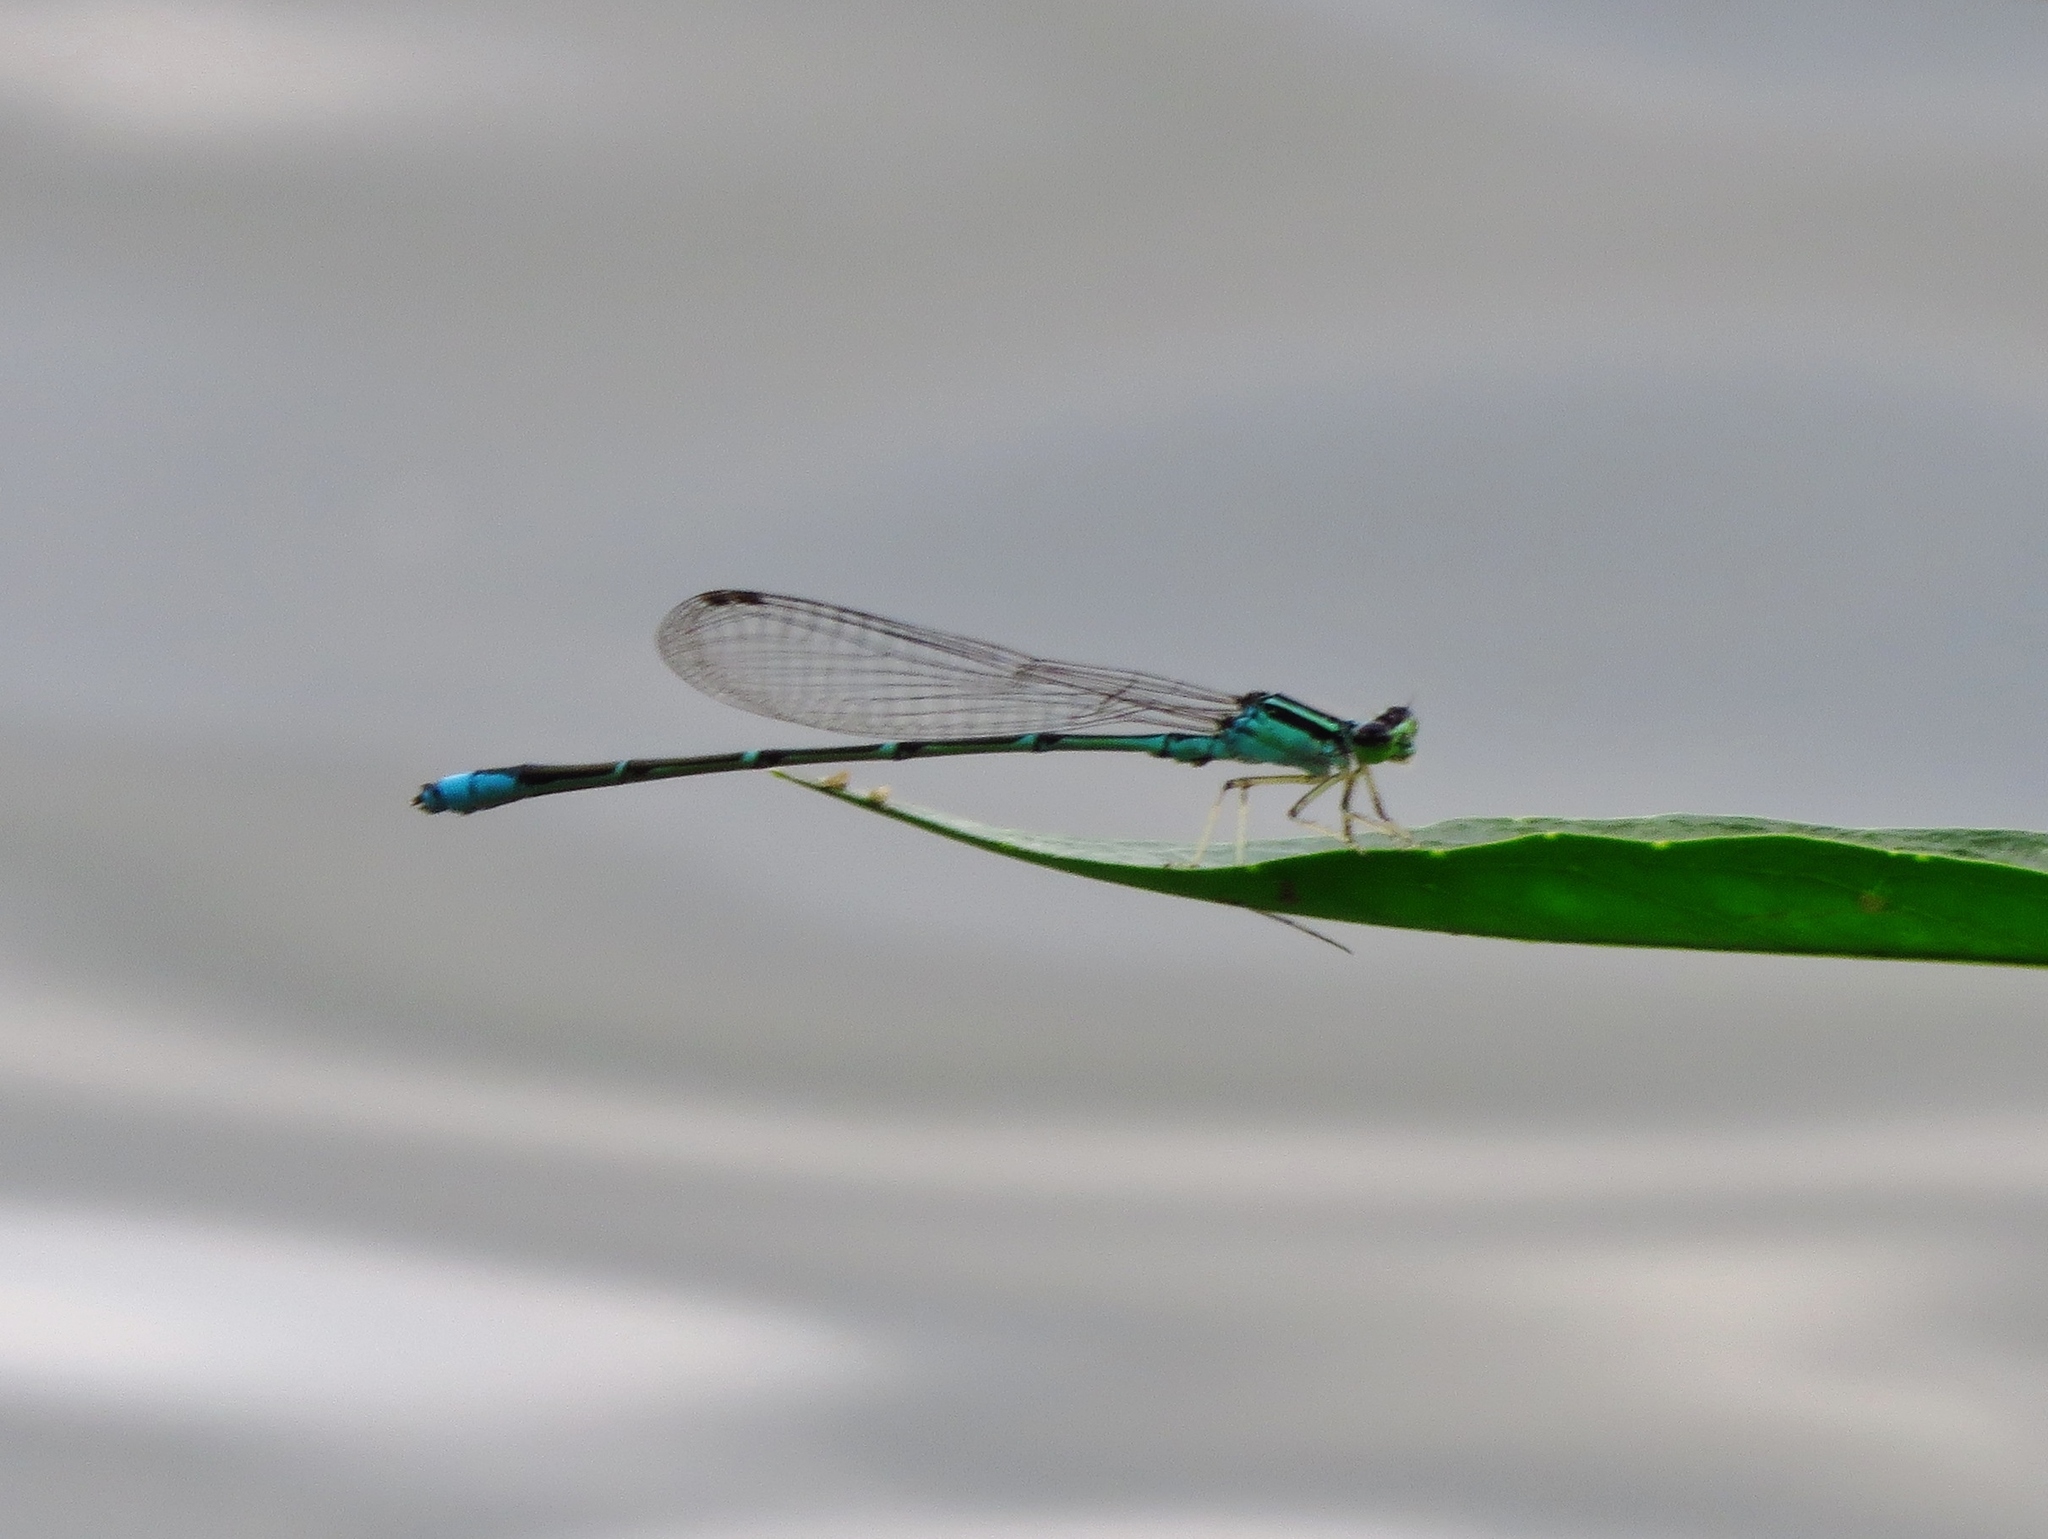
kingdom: Animalia
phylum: Arthropoda
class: Insecta
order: Odonata
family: Coenagrionidae
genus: Enallagma
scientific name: Enallagma exsulans
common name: Stream bluet
